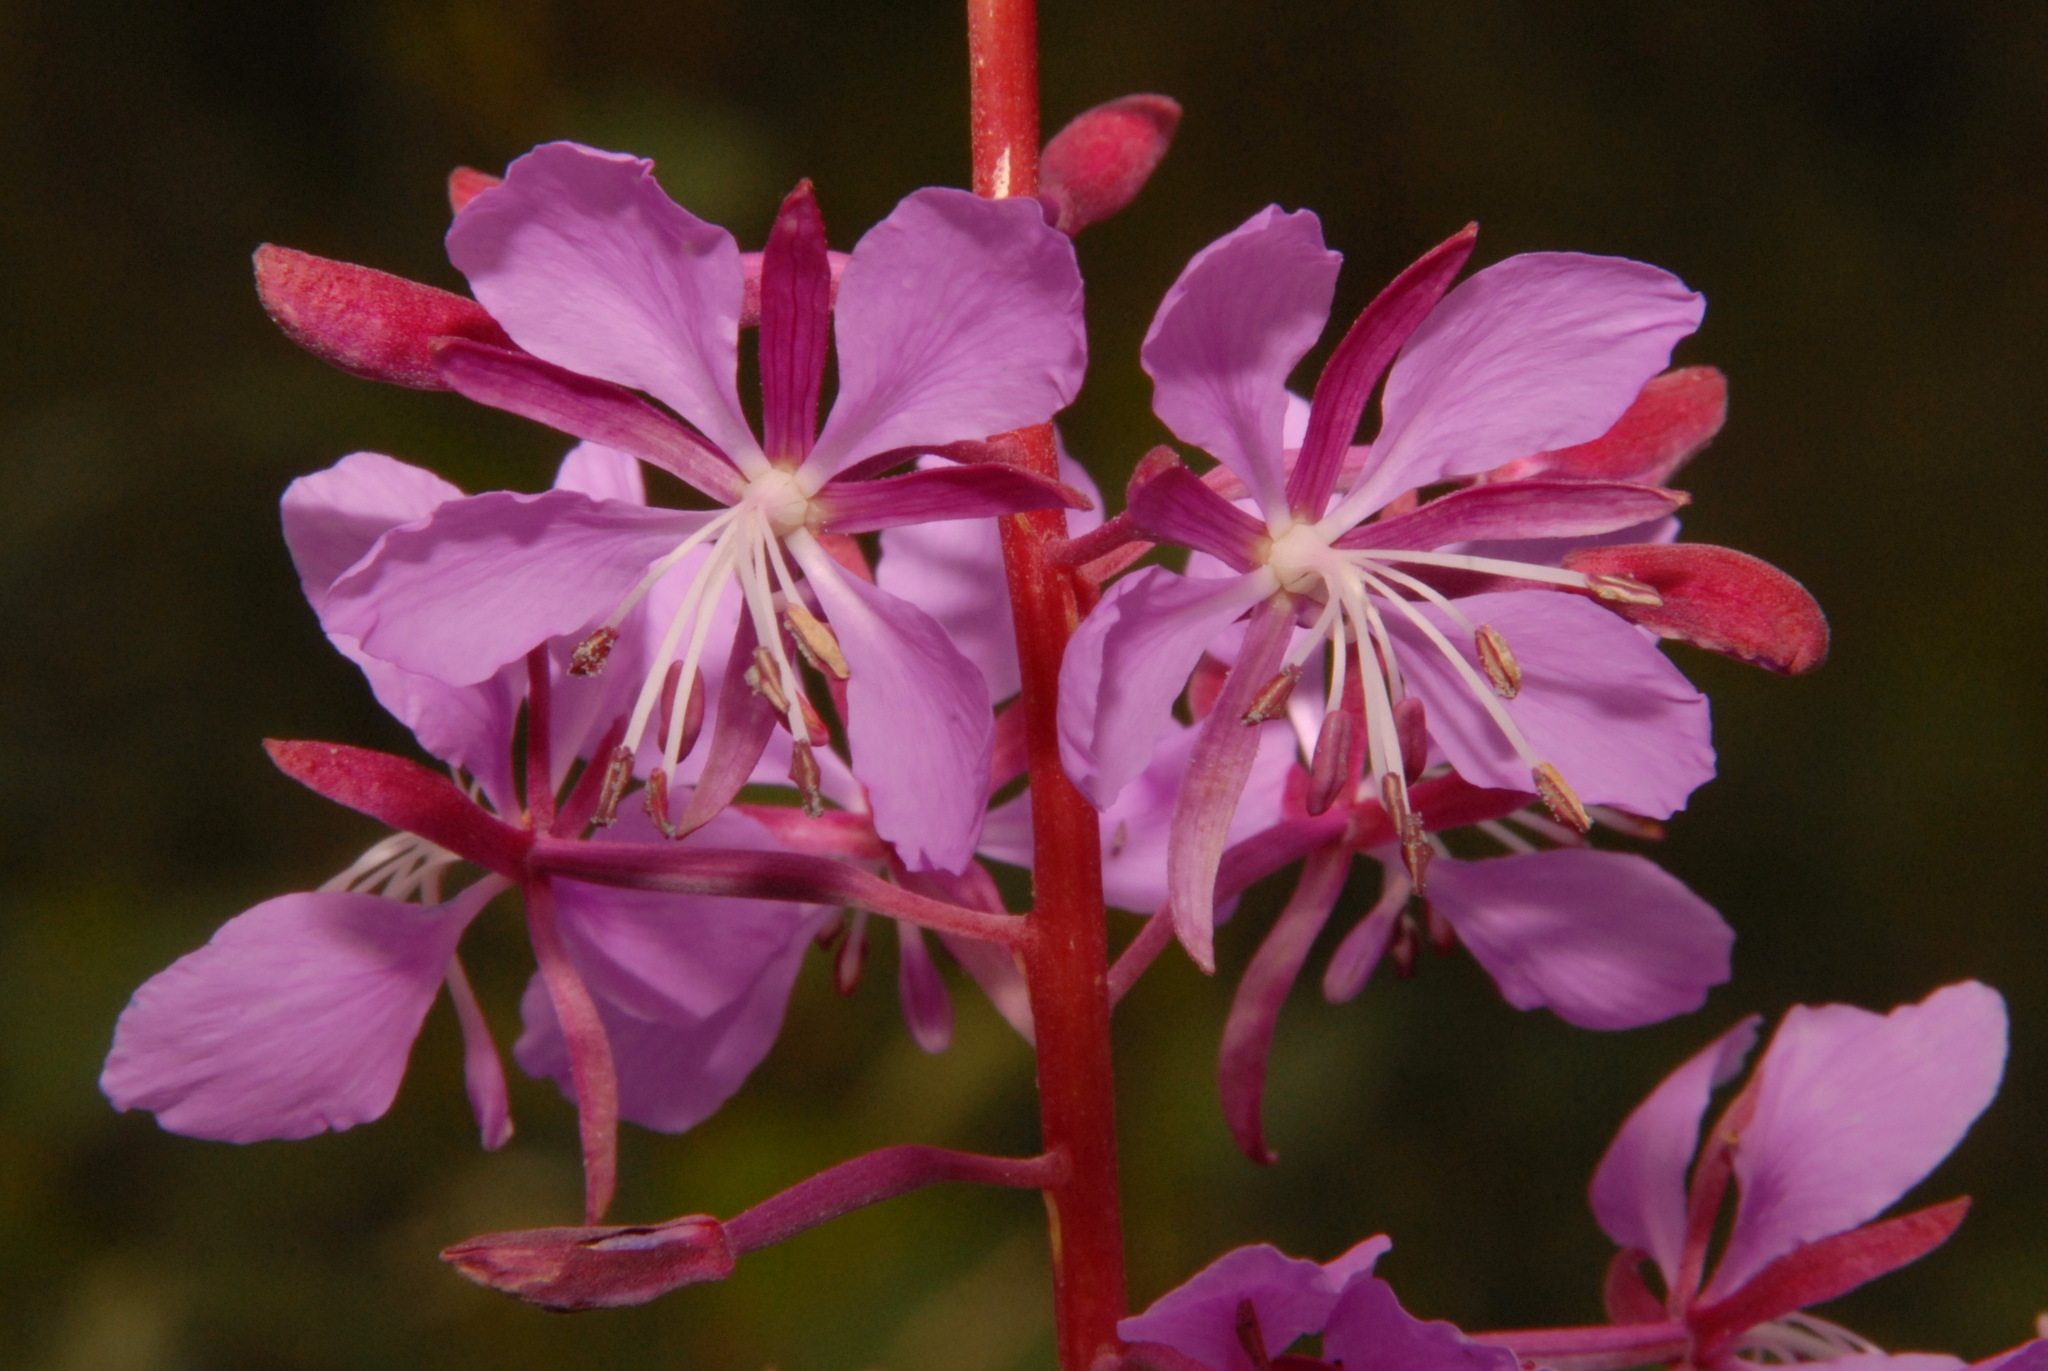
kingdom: Plantae
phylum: Tracheophyta
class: Magnoliopsida
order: Myrtales
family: Onagraceae
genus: Chamaenerion
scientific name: Chamaenerion angustifolium
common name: Fireweed
